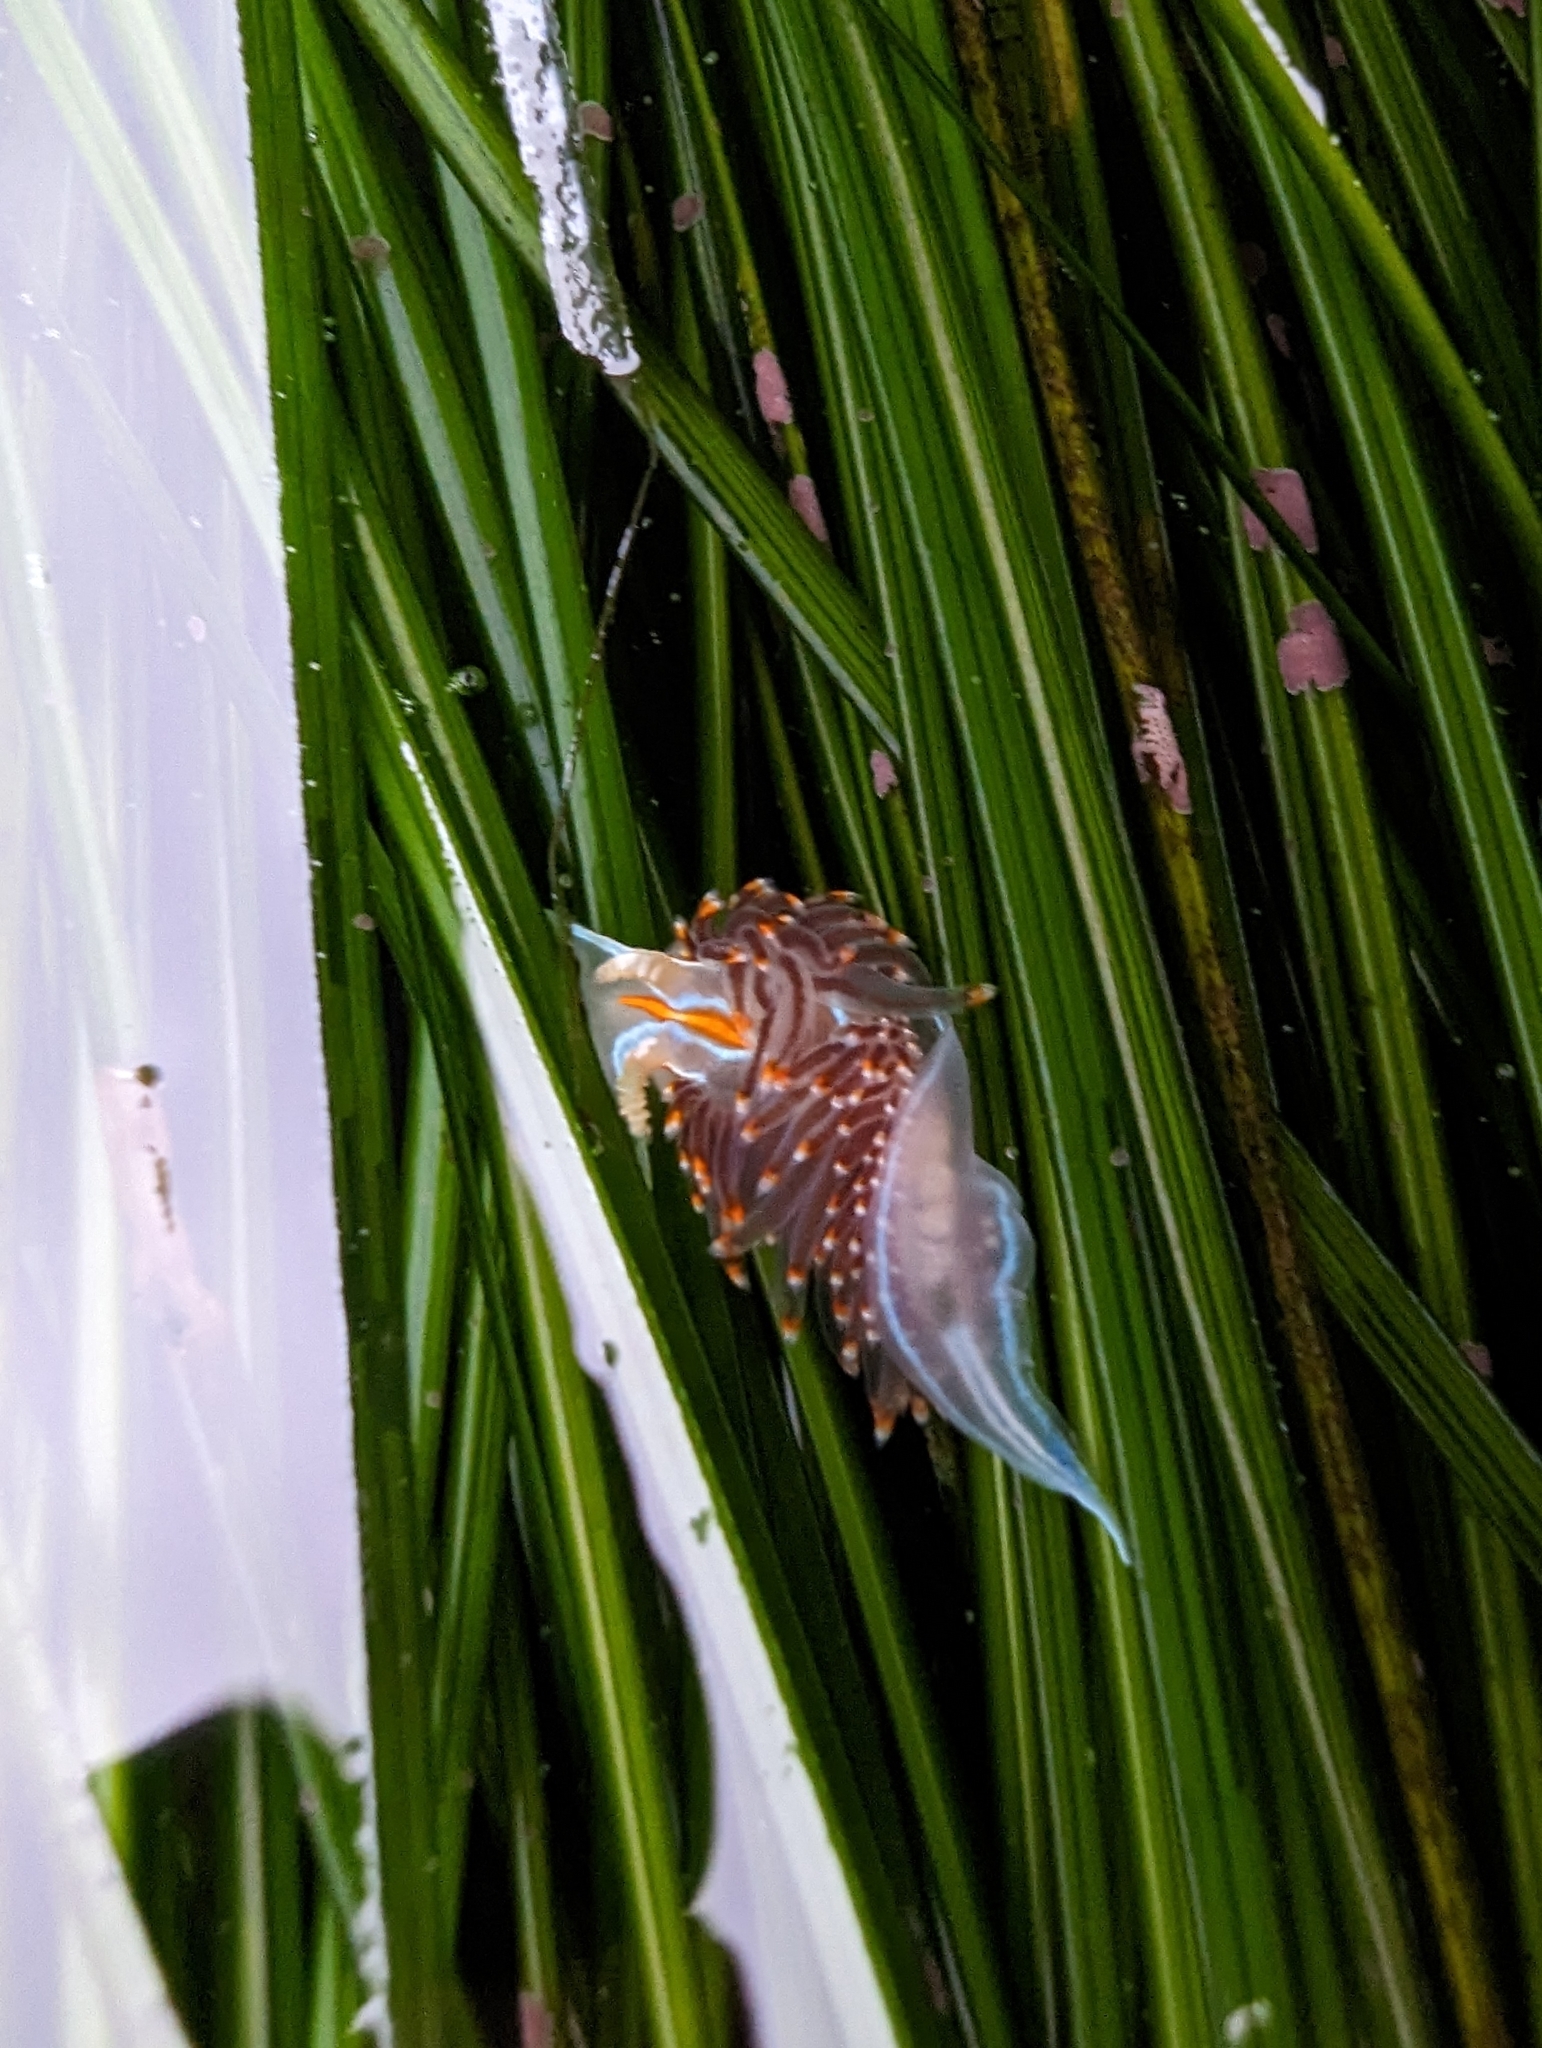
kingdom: Animalia
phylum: Mollusca
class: Gastropoda
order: Nudibranchia
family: Myrrhinidae
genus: Hermissenda
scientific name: Hermissenda opalescens
